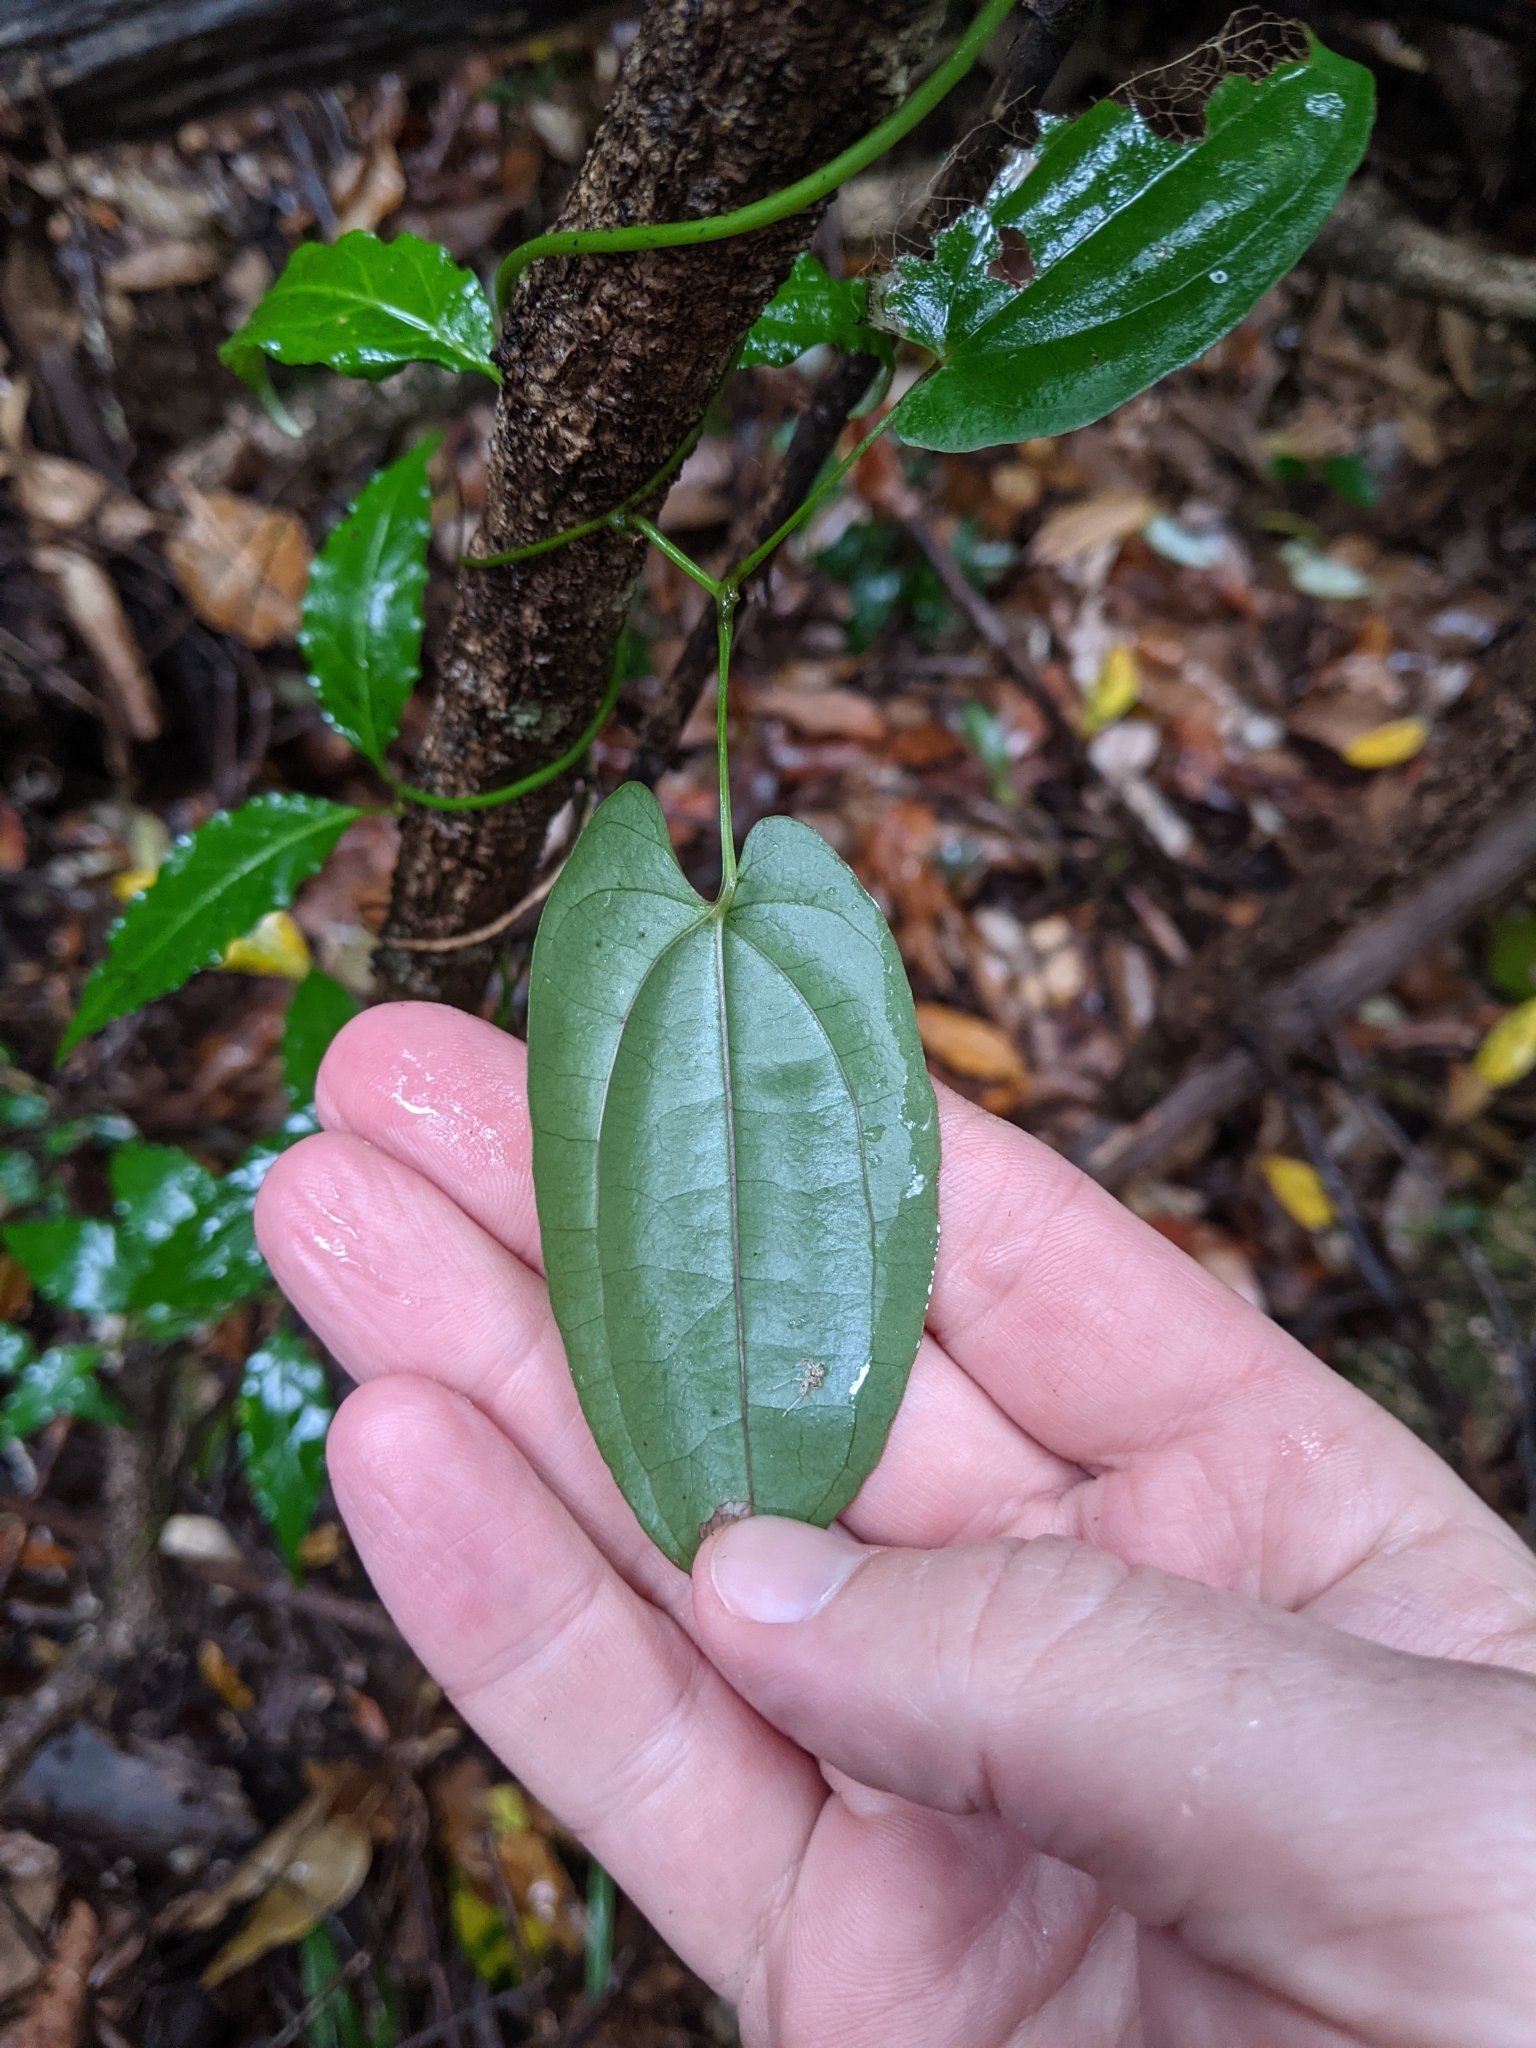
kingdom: Plantae
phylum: Tracheophyta
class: Liliopsida
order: Dioscoreales
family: Dioscoreaceae
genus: Dioscorea
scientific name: Dioscorea transversa
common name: Long yam
